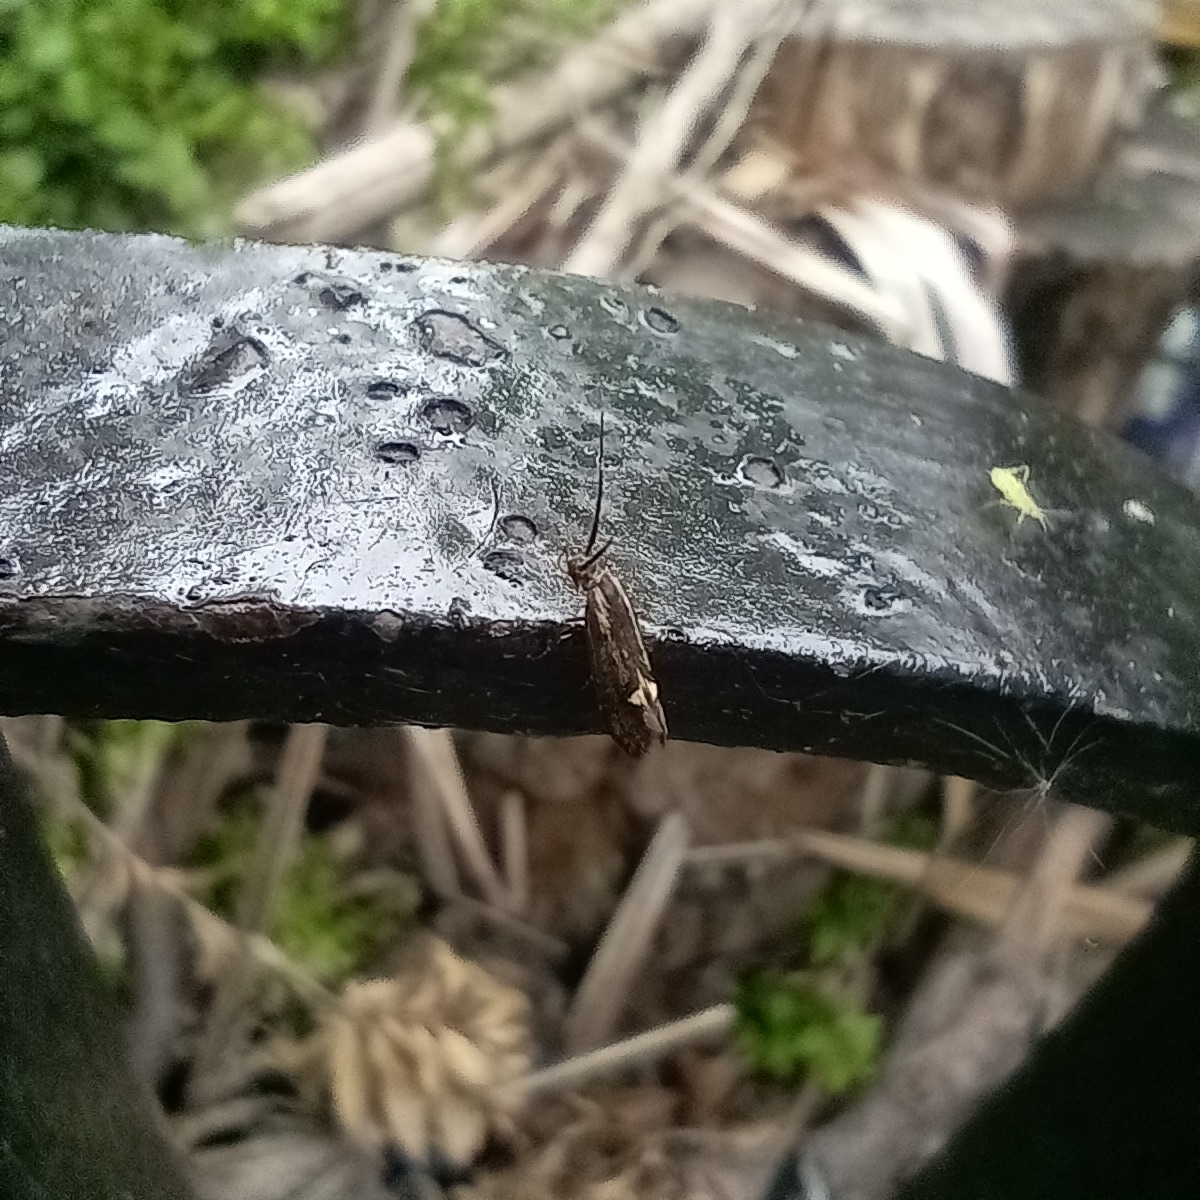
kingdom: Animalia
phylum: Arthropoda
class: Insecta
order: Lepidoptera
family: Oecophoridae
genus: Dafa
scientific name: Dafa Esperia sulphurella
